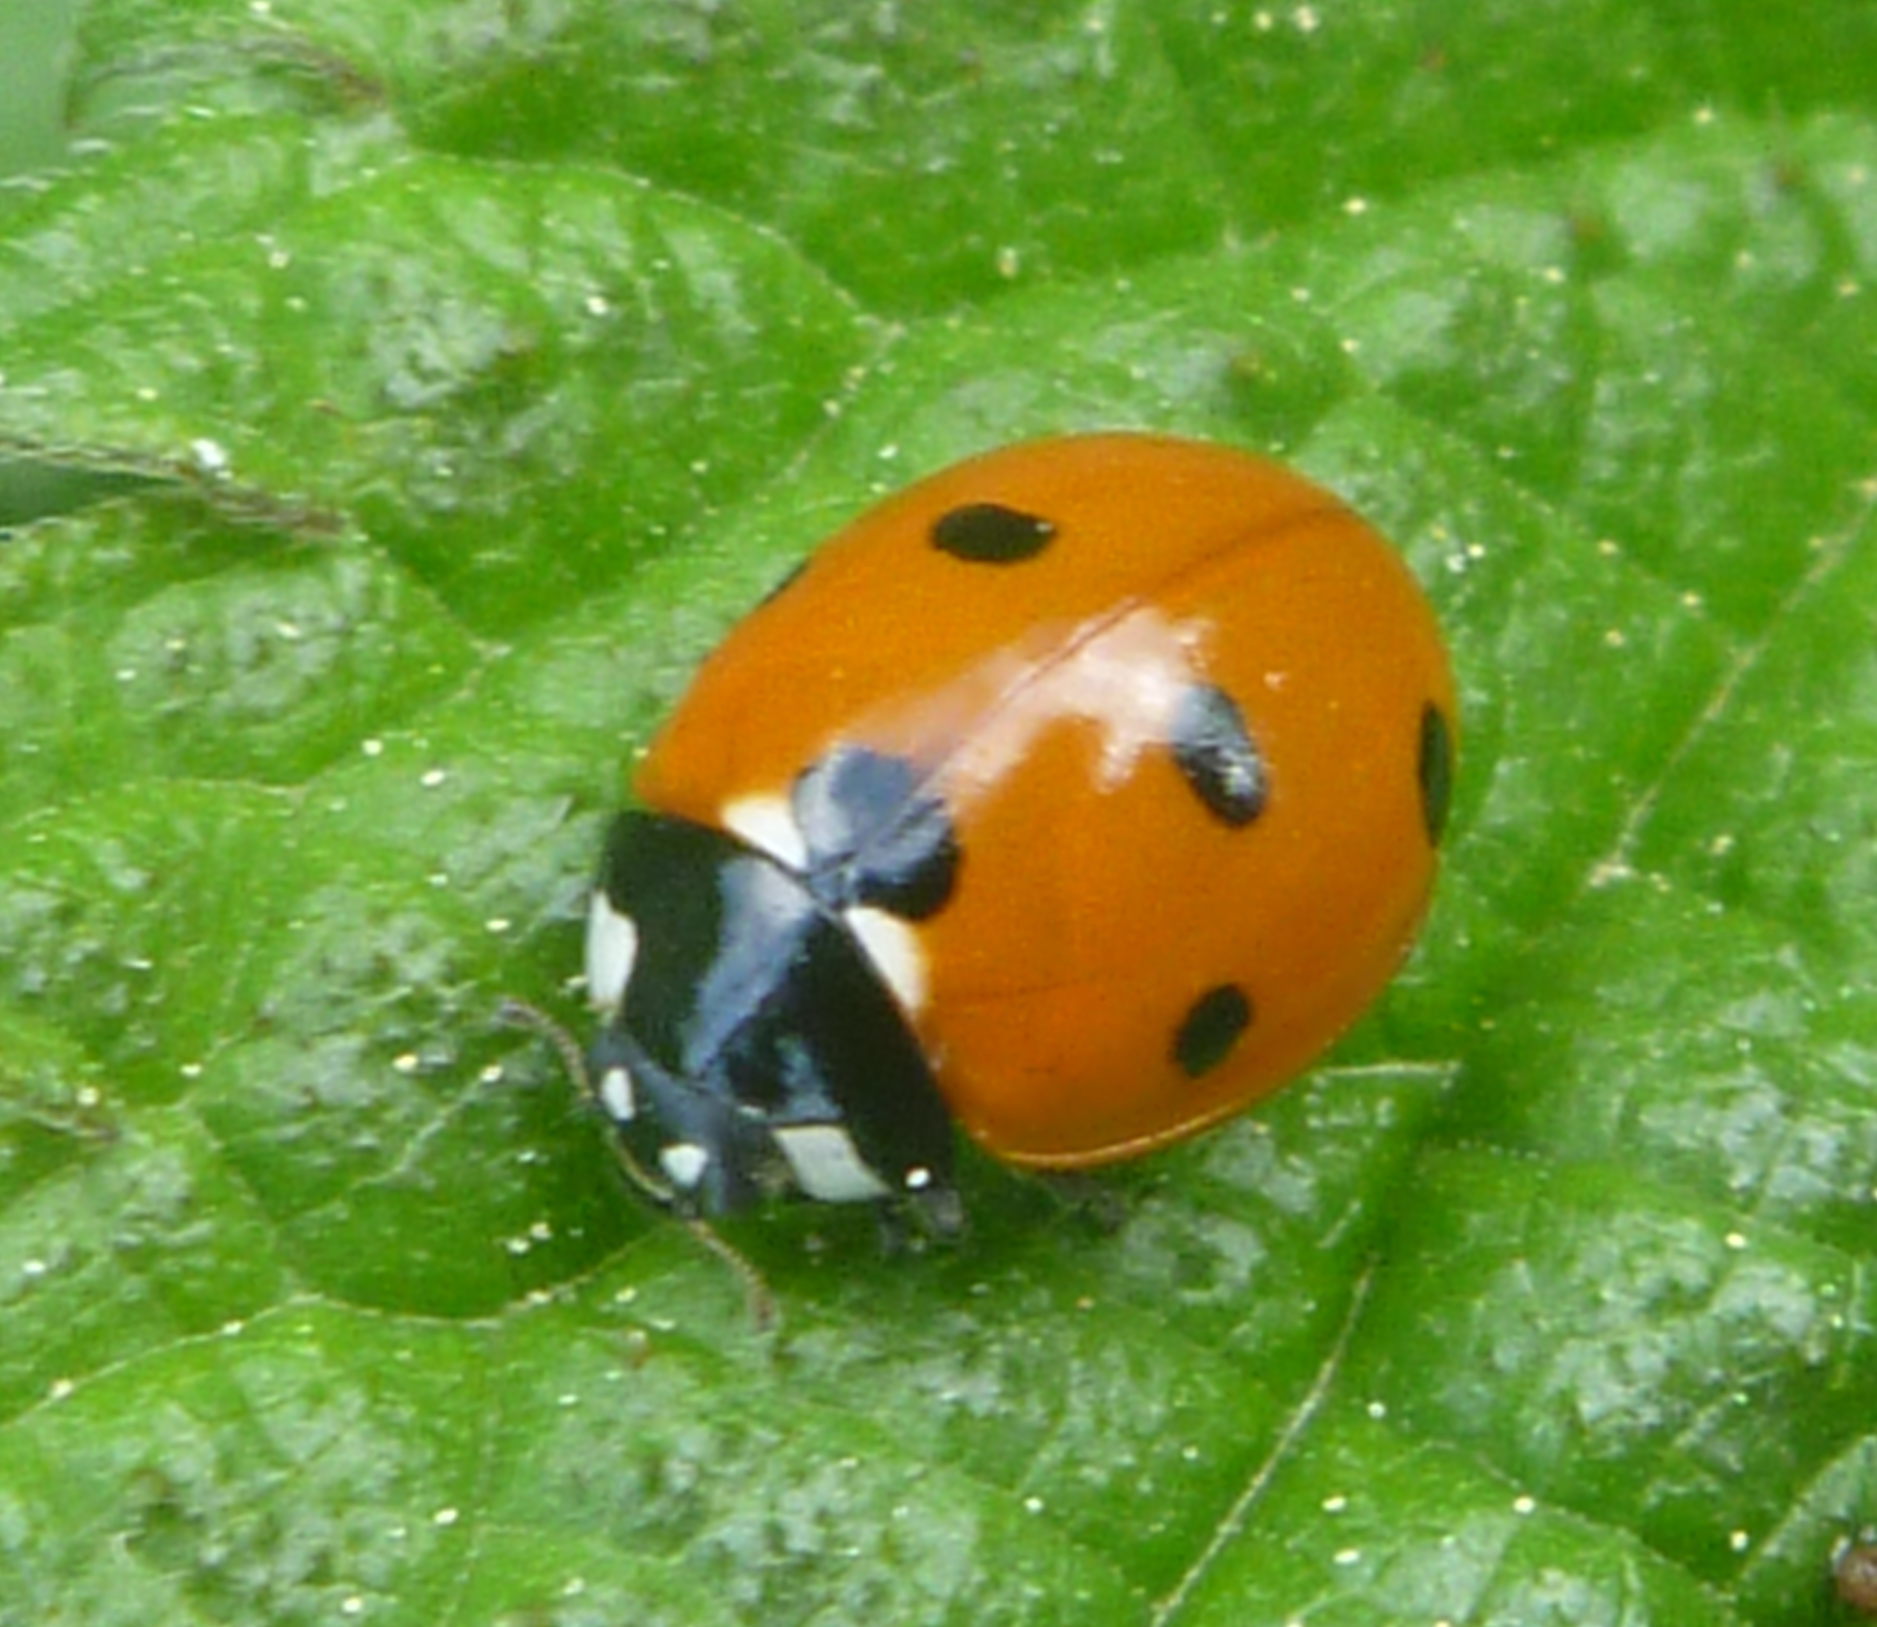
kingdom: Animalia
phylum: Arthropoda
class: Insecta
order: Coleoptera
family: Coccinellidae
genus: Coccinella
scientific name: Coccinella septempunctata
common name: Sevenspotted lady beetle
